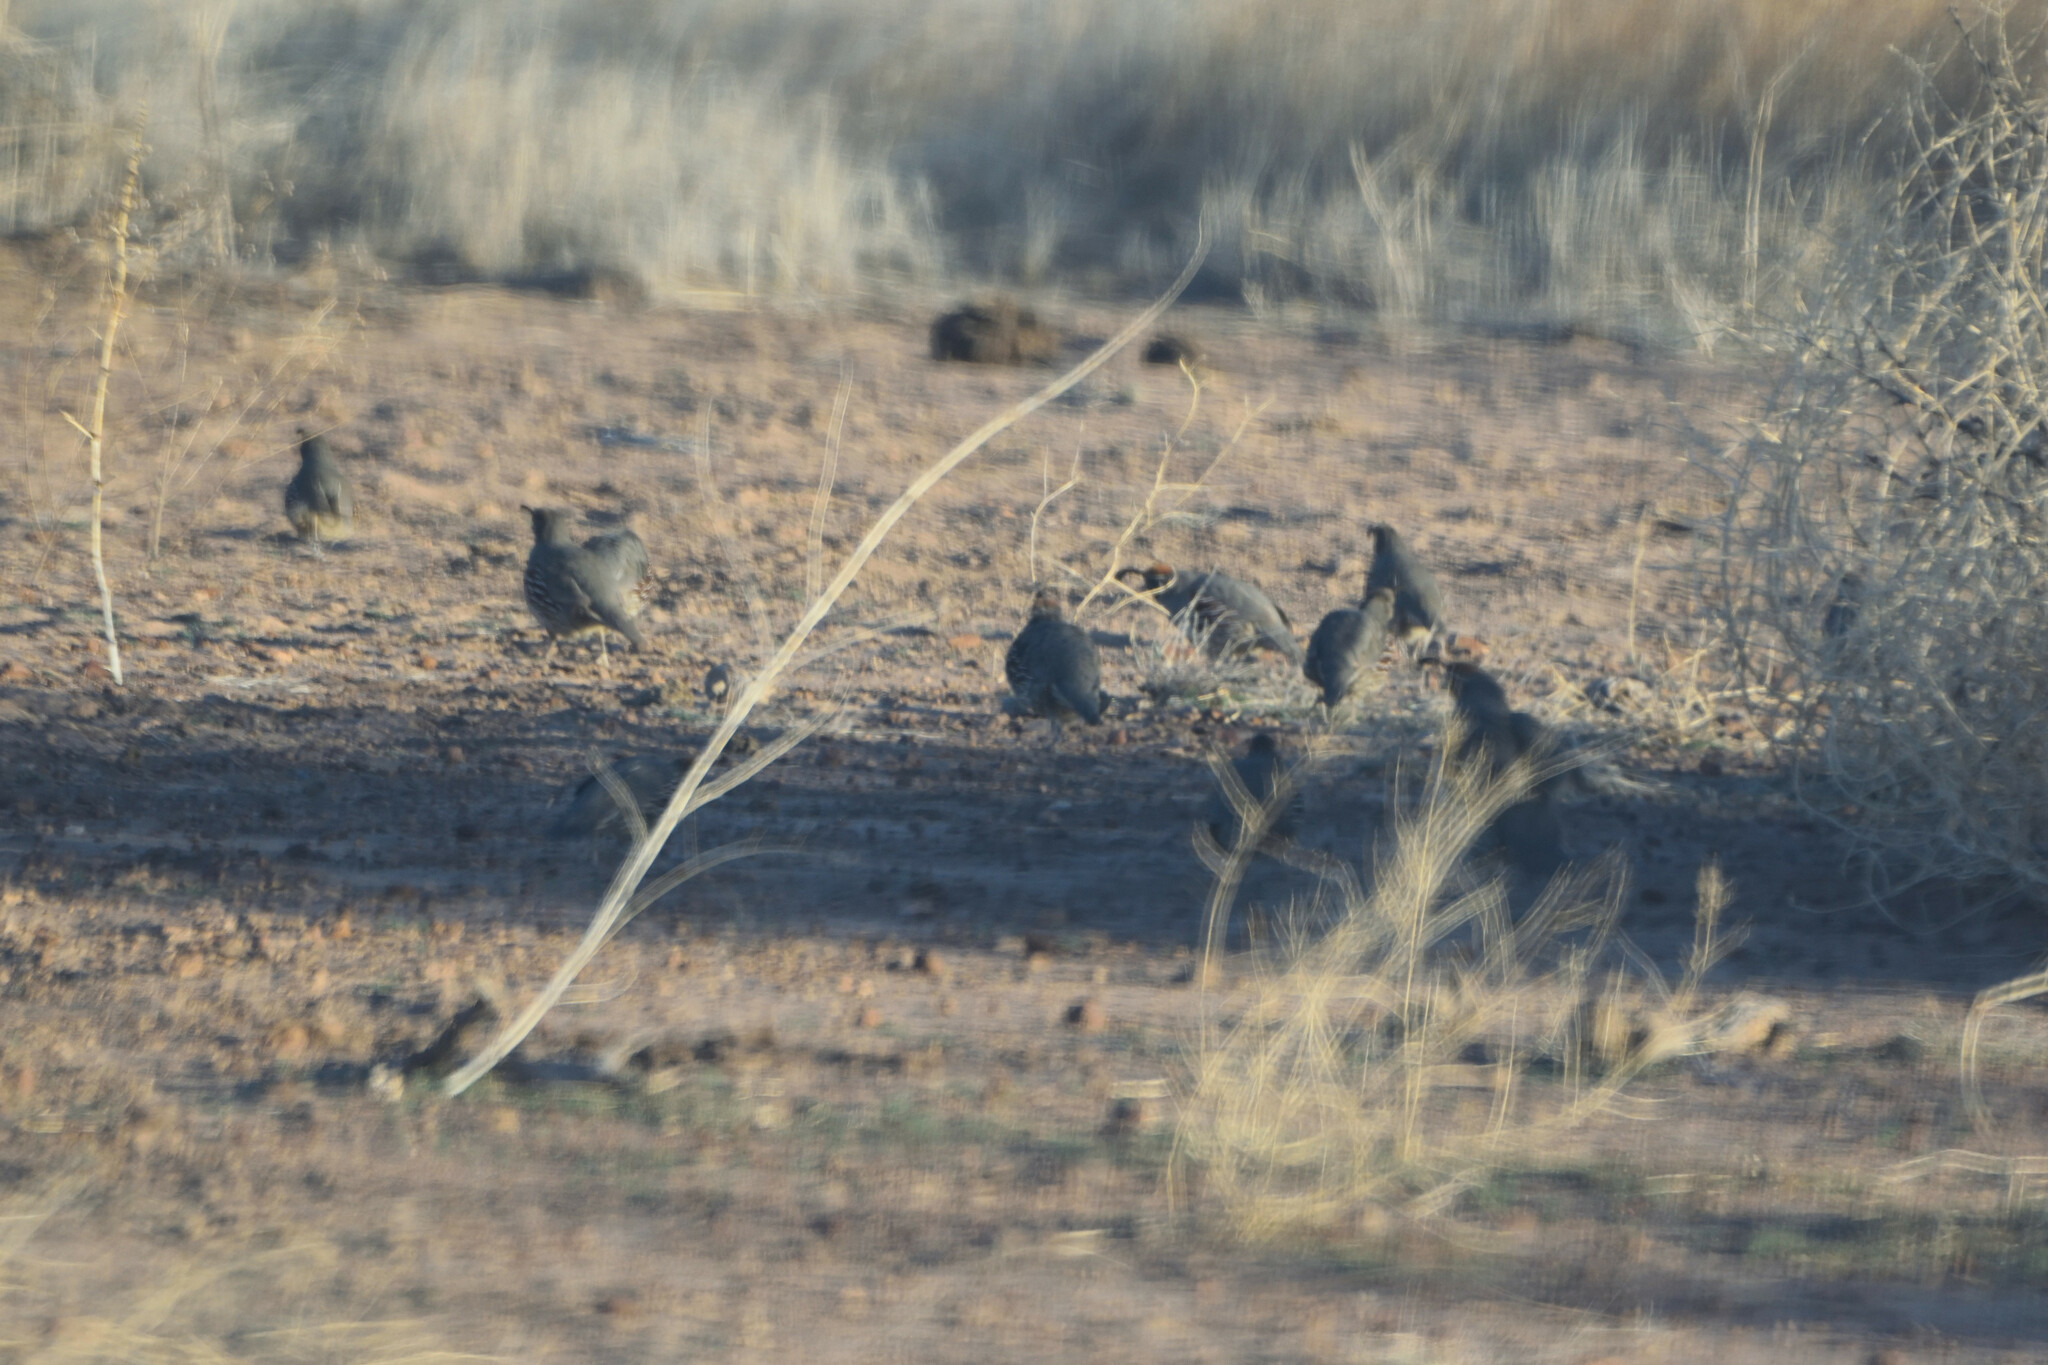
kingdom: Animalia
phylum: Chordata
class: Aves
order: Galliformes
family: Odontophoridae
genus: Callipepla
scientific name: Callipepla gambelii
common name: Gambel's quail
